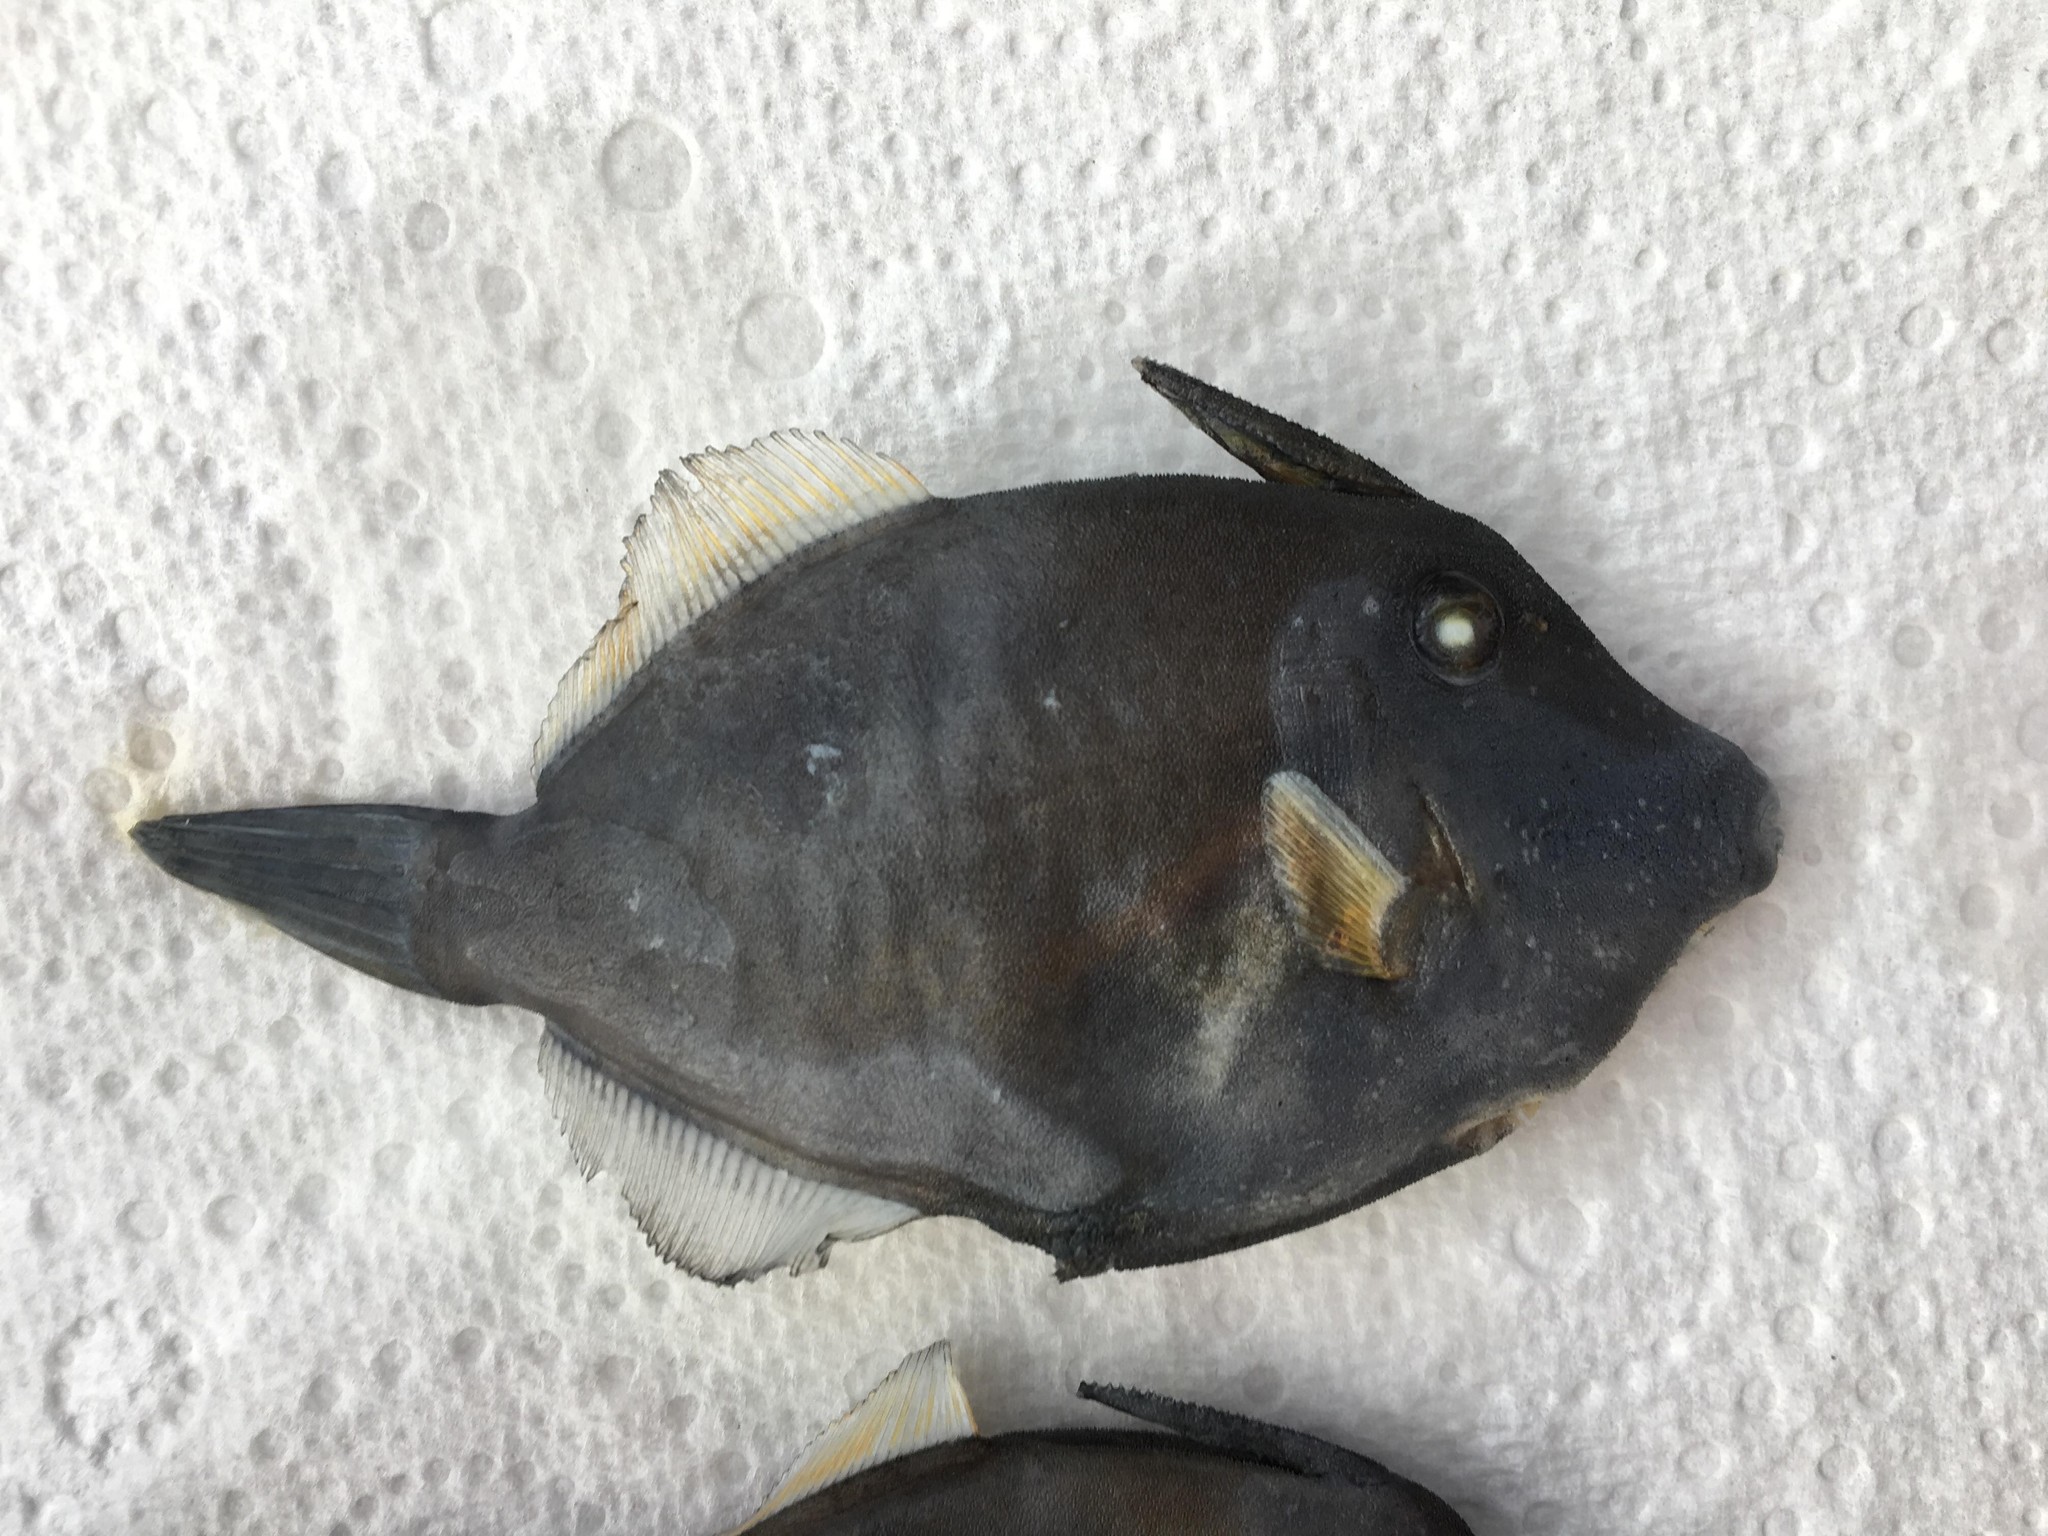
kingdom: Animalia
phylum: Chordata
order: Tetraodontiformes
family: Monacanthidae
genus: Amanses
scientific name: Amanses scopas
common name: Broom filefish
